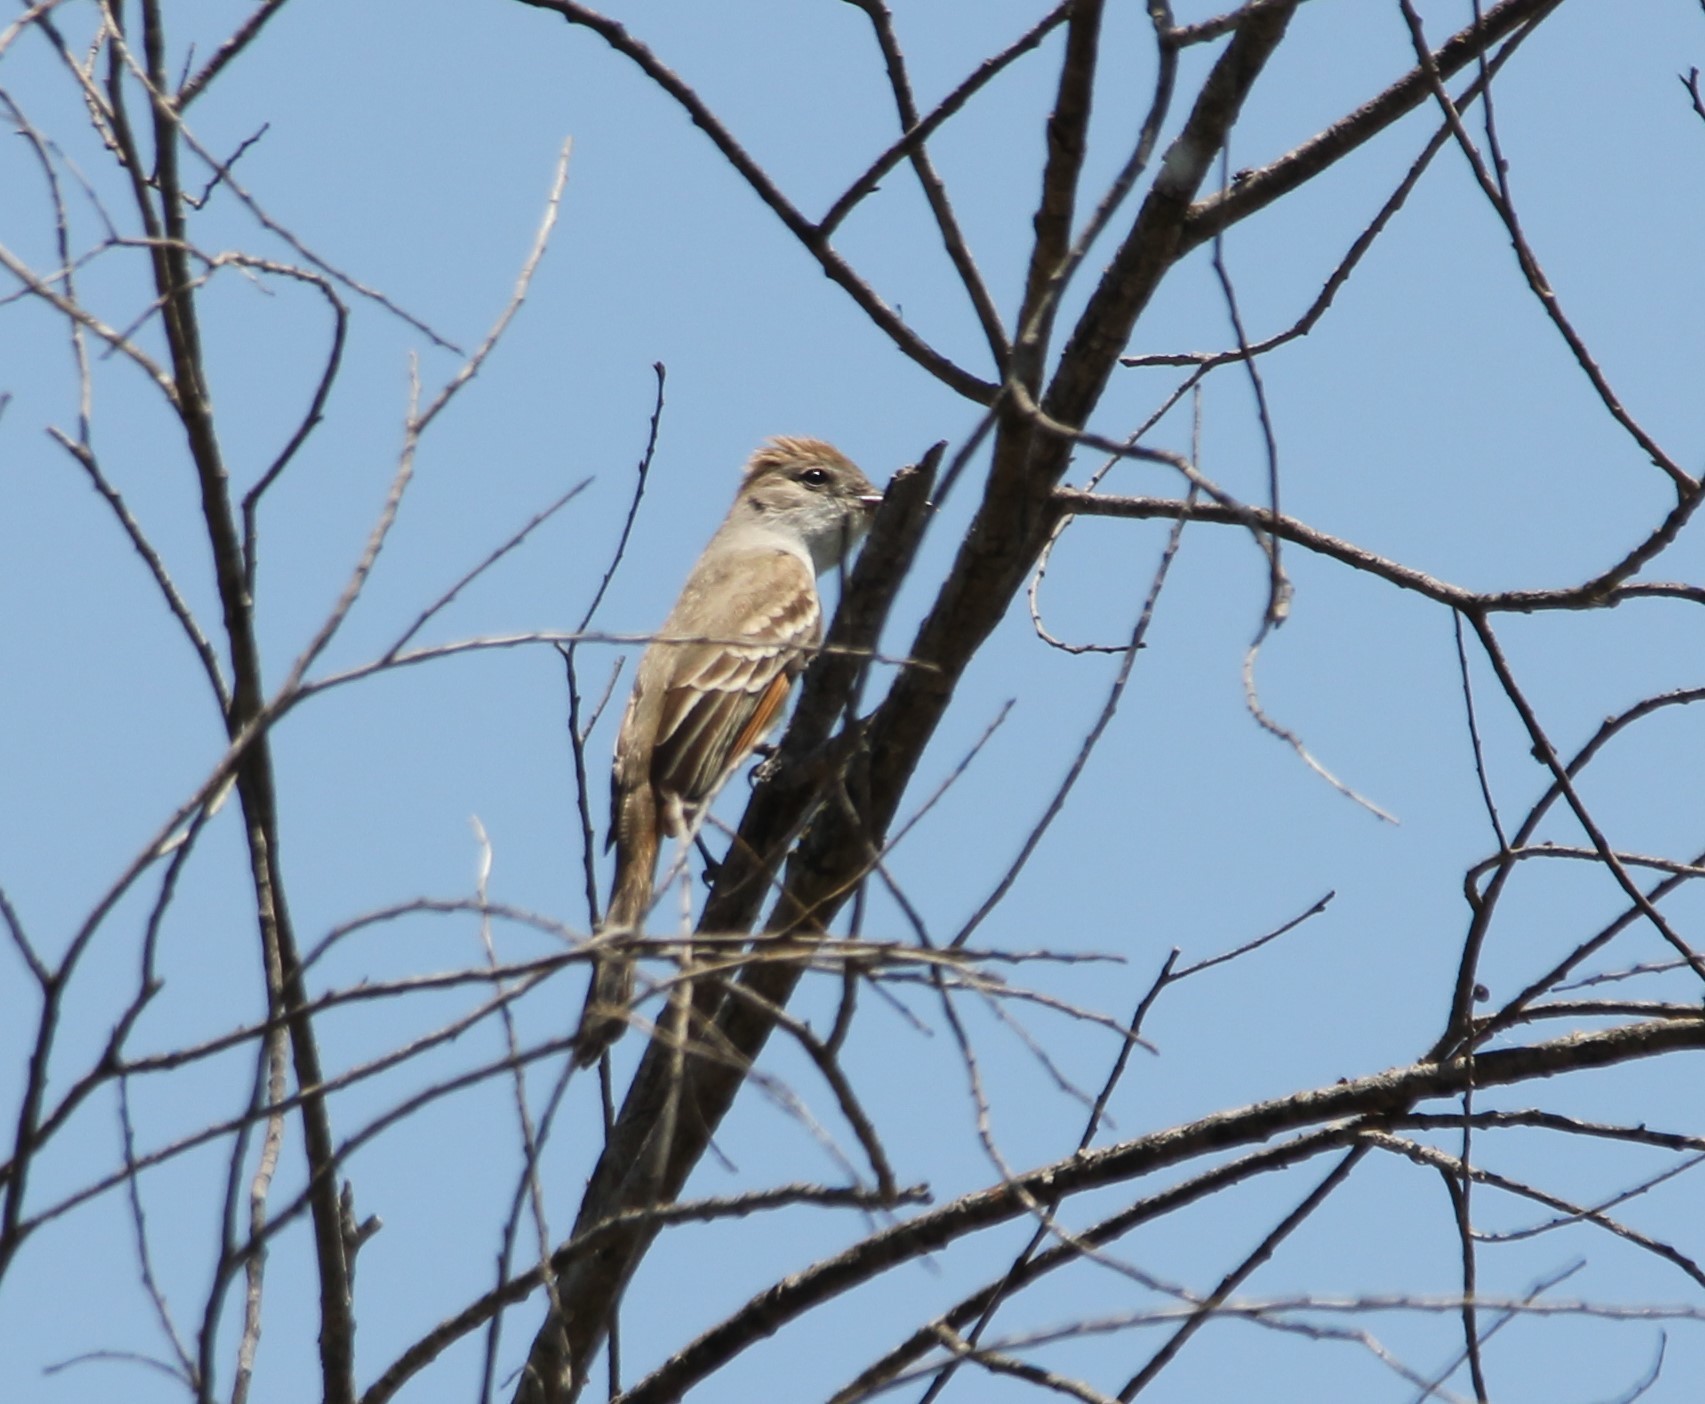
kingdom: Animalia
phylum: Chordata
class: Aves
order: Passeriformes
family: Tyrannidae
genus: Myiarchus
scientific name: Myiarchus cinerascens
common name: Ash-throated flycatcher
